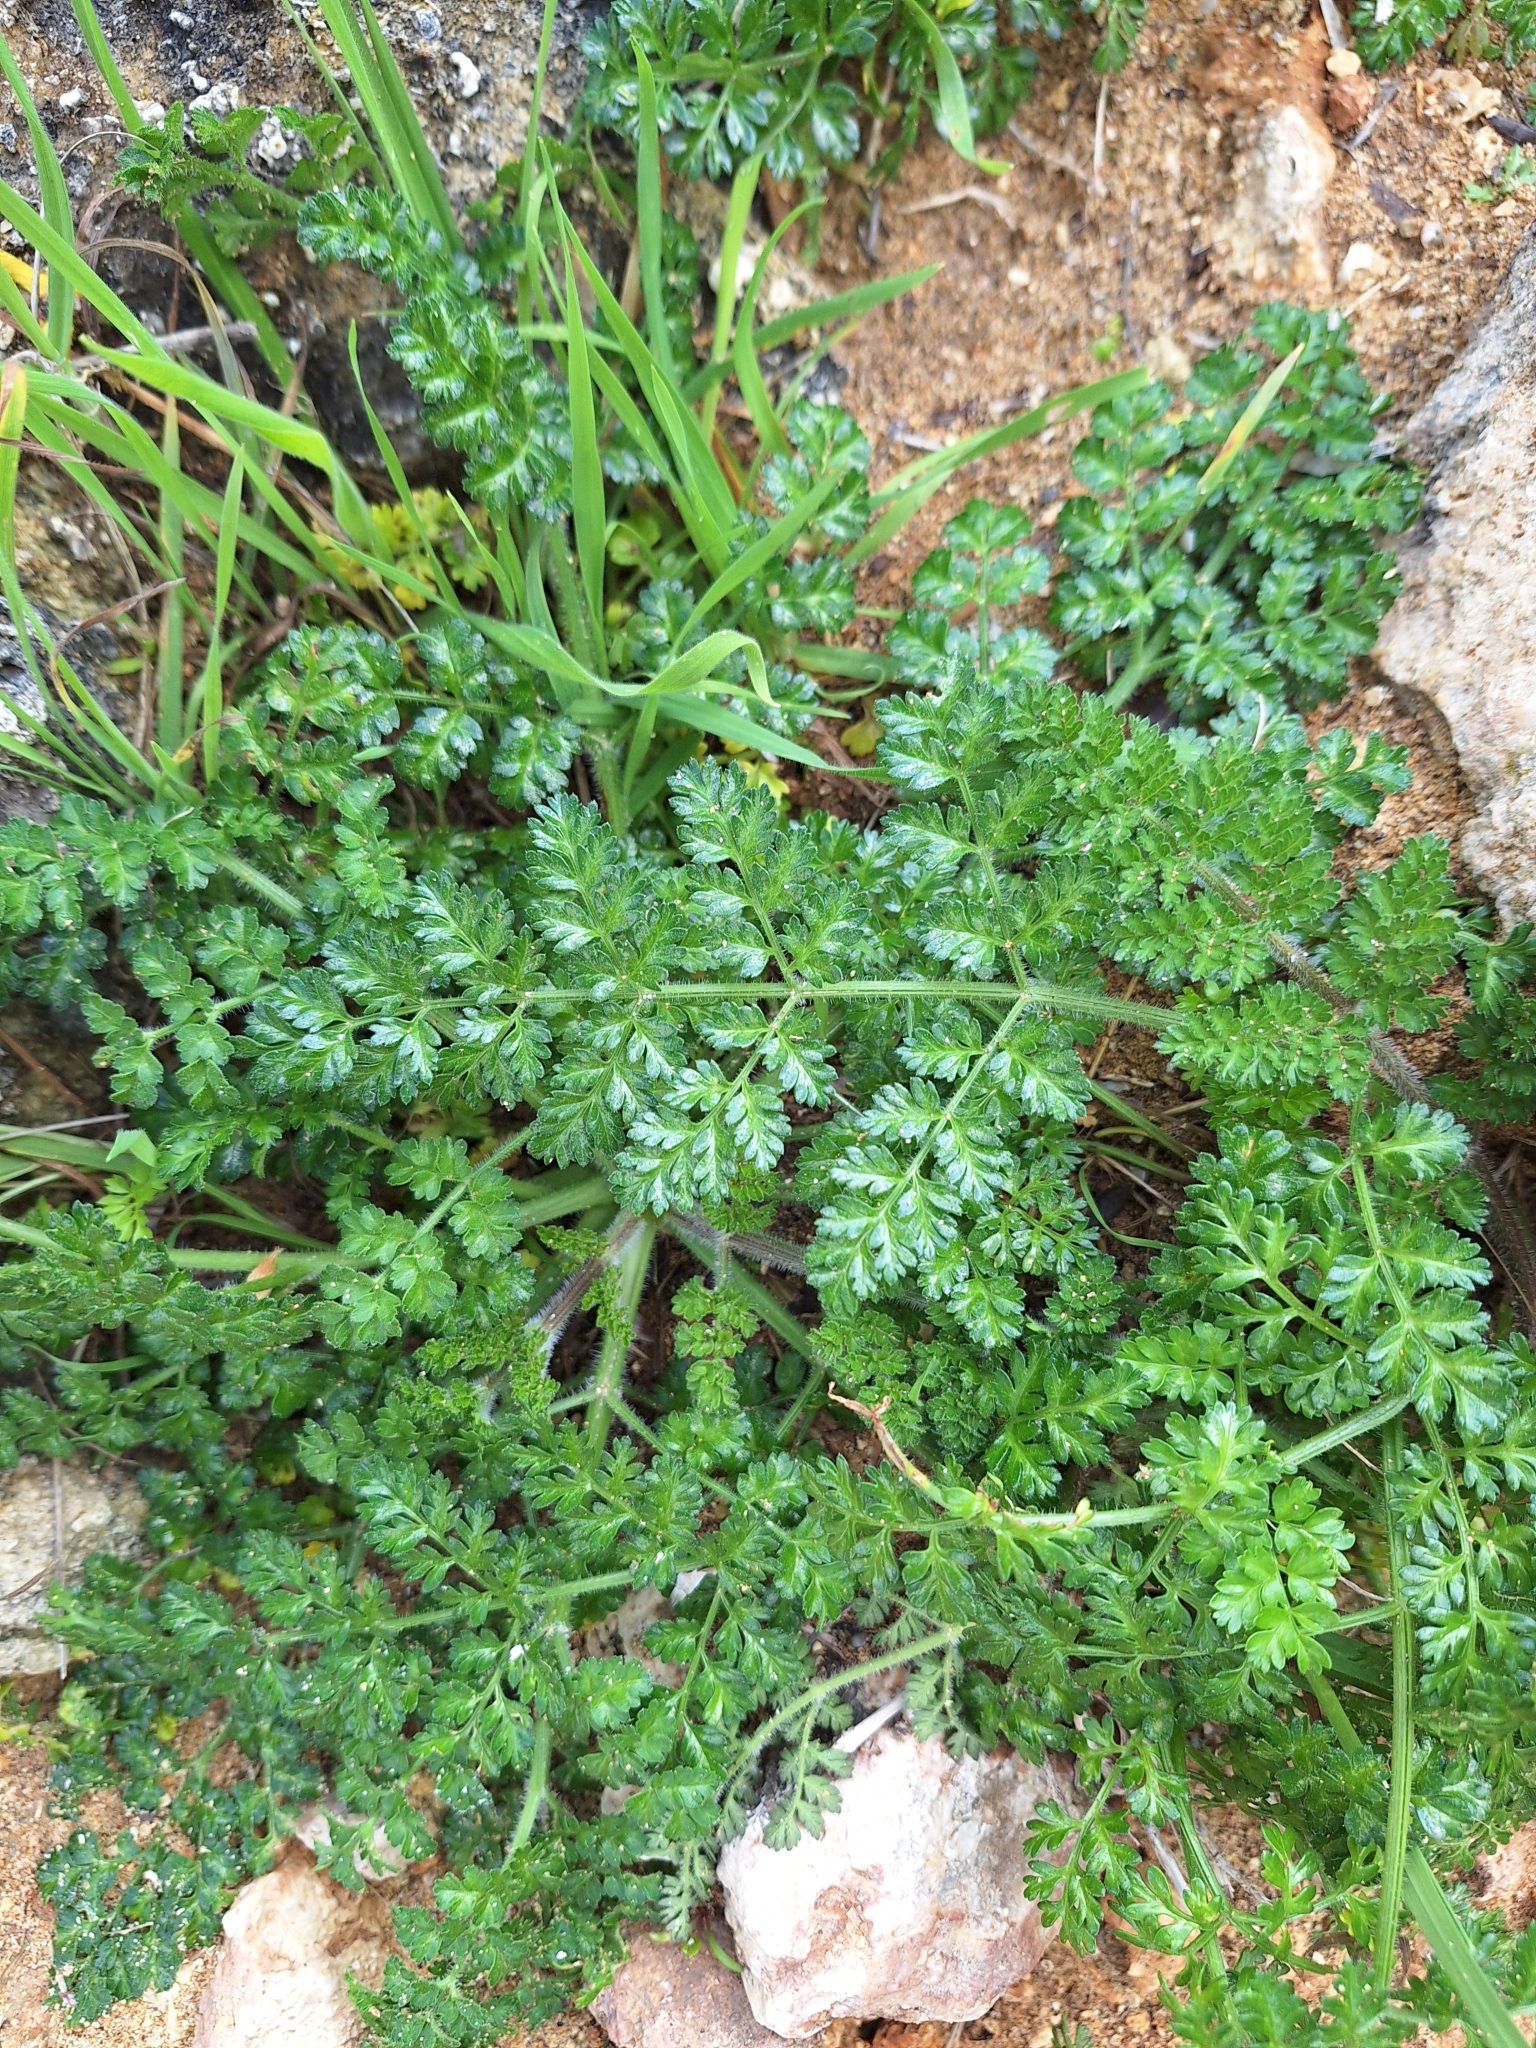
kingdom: Plantae
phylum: Tracheophyta
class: Magnoliopsida
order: Apiales
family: Apiaceae
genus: Daucus
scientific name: Daucus carota
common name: Wild carrot
